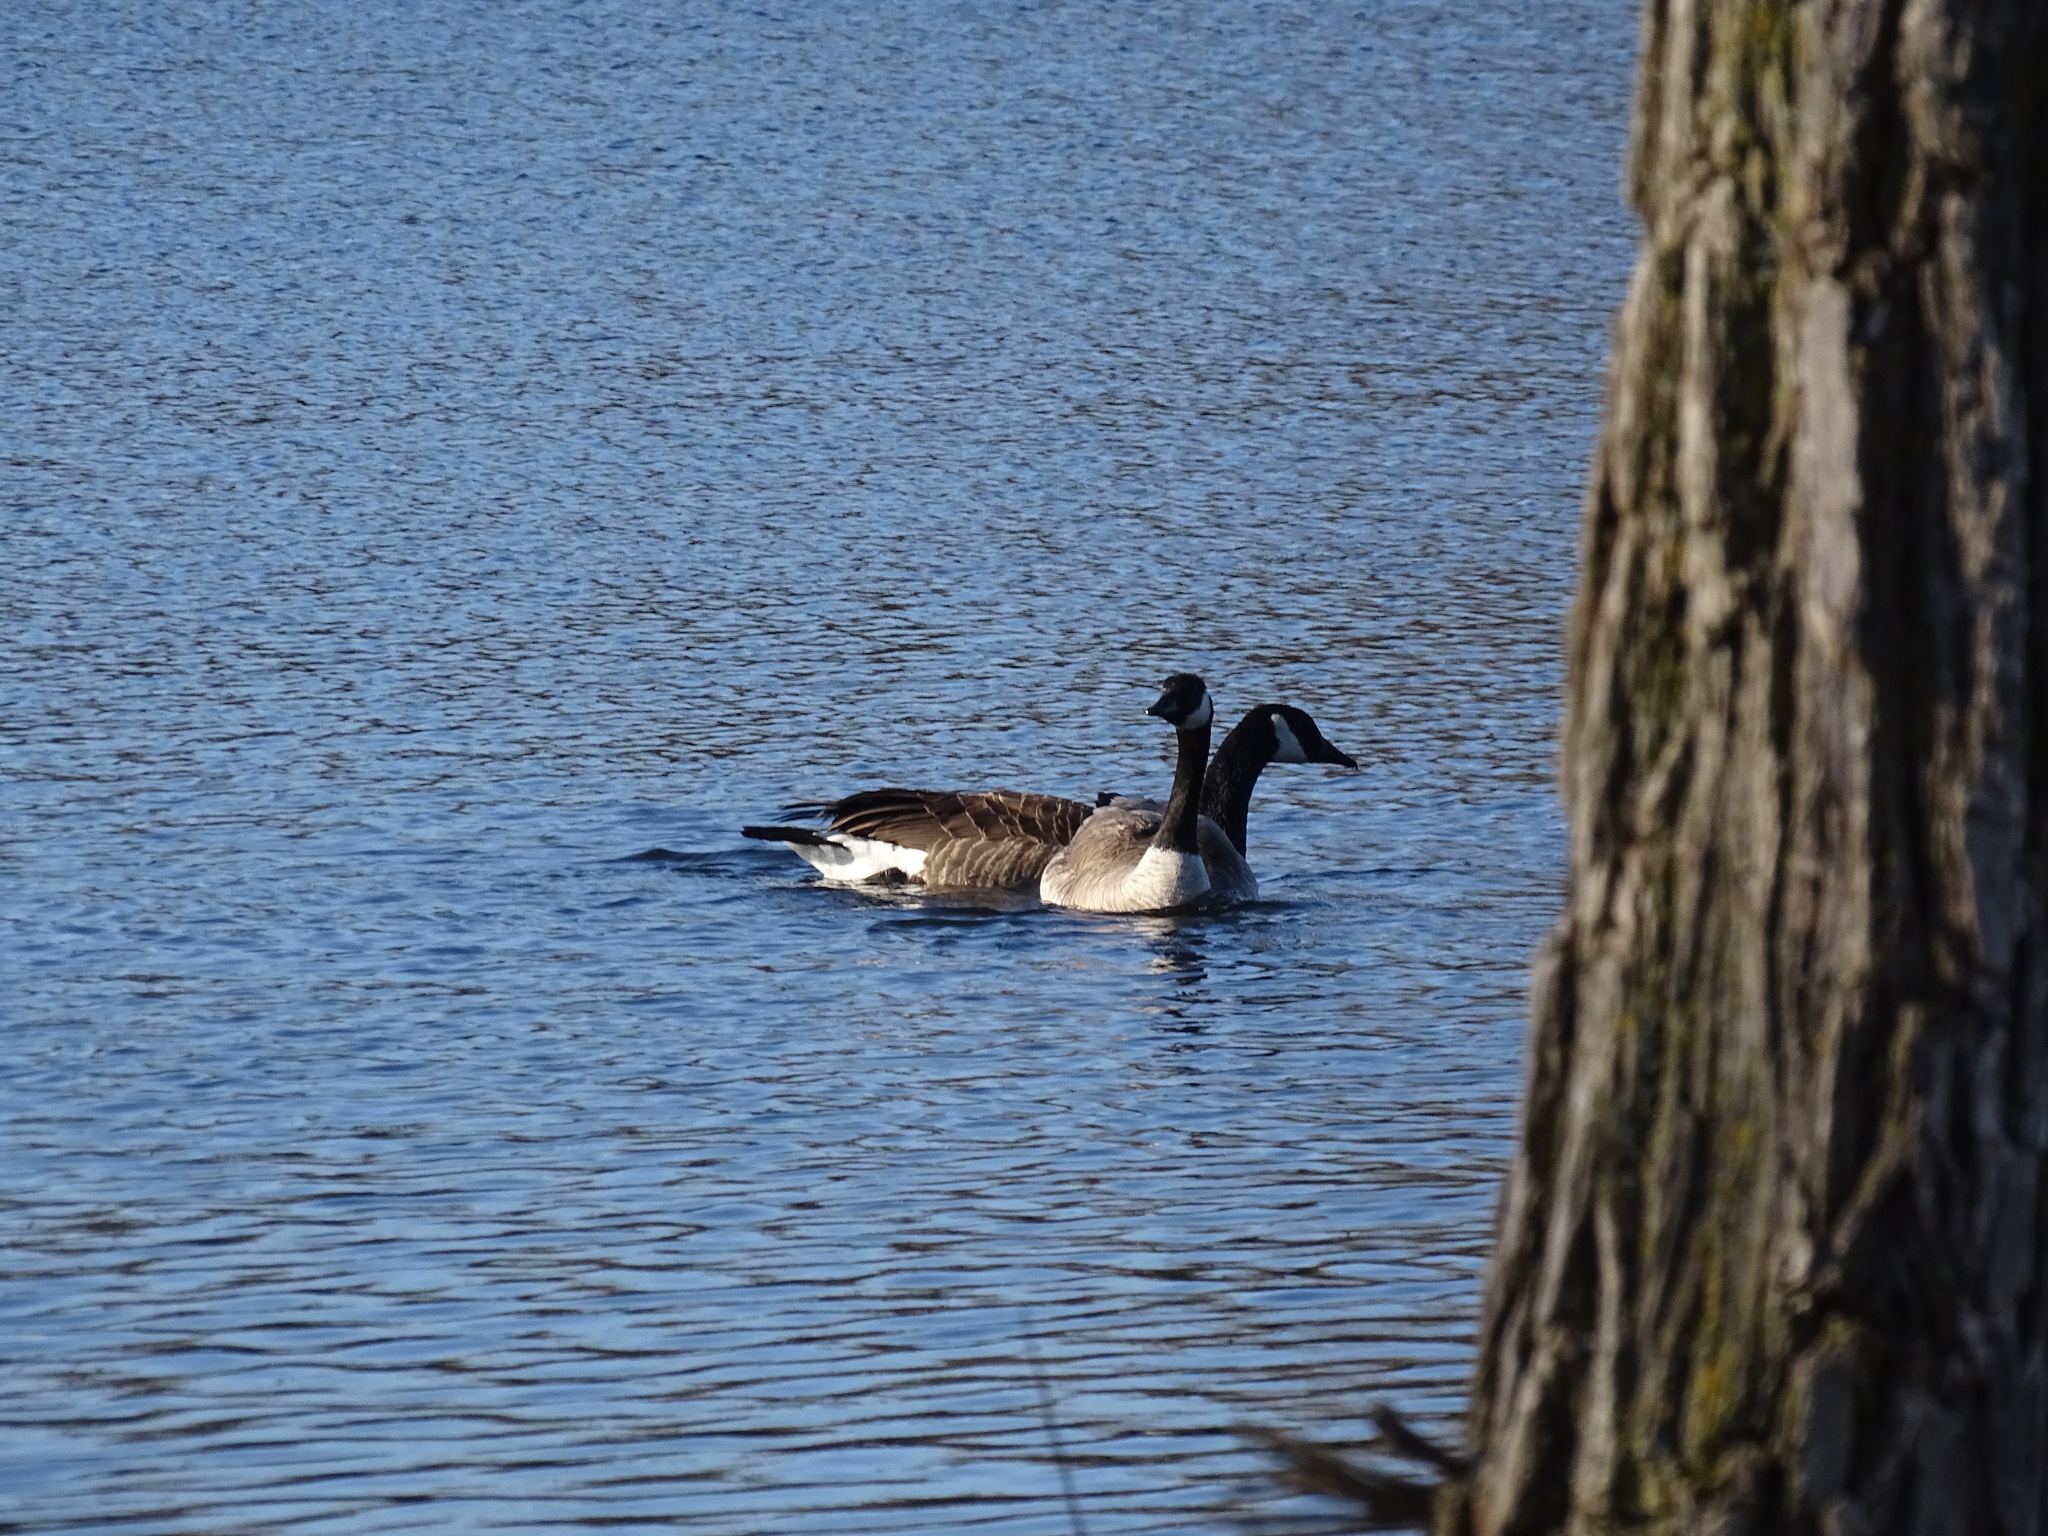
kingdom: Animalia
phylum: Chordata
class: Aves
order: Anseriformes
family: Anatidae
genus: Branta
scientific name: Branta canadensis
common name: Canada goose
